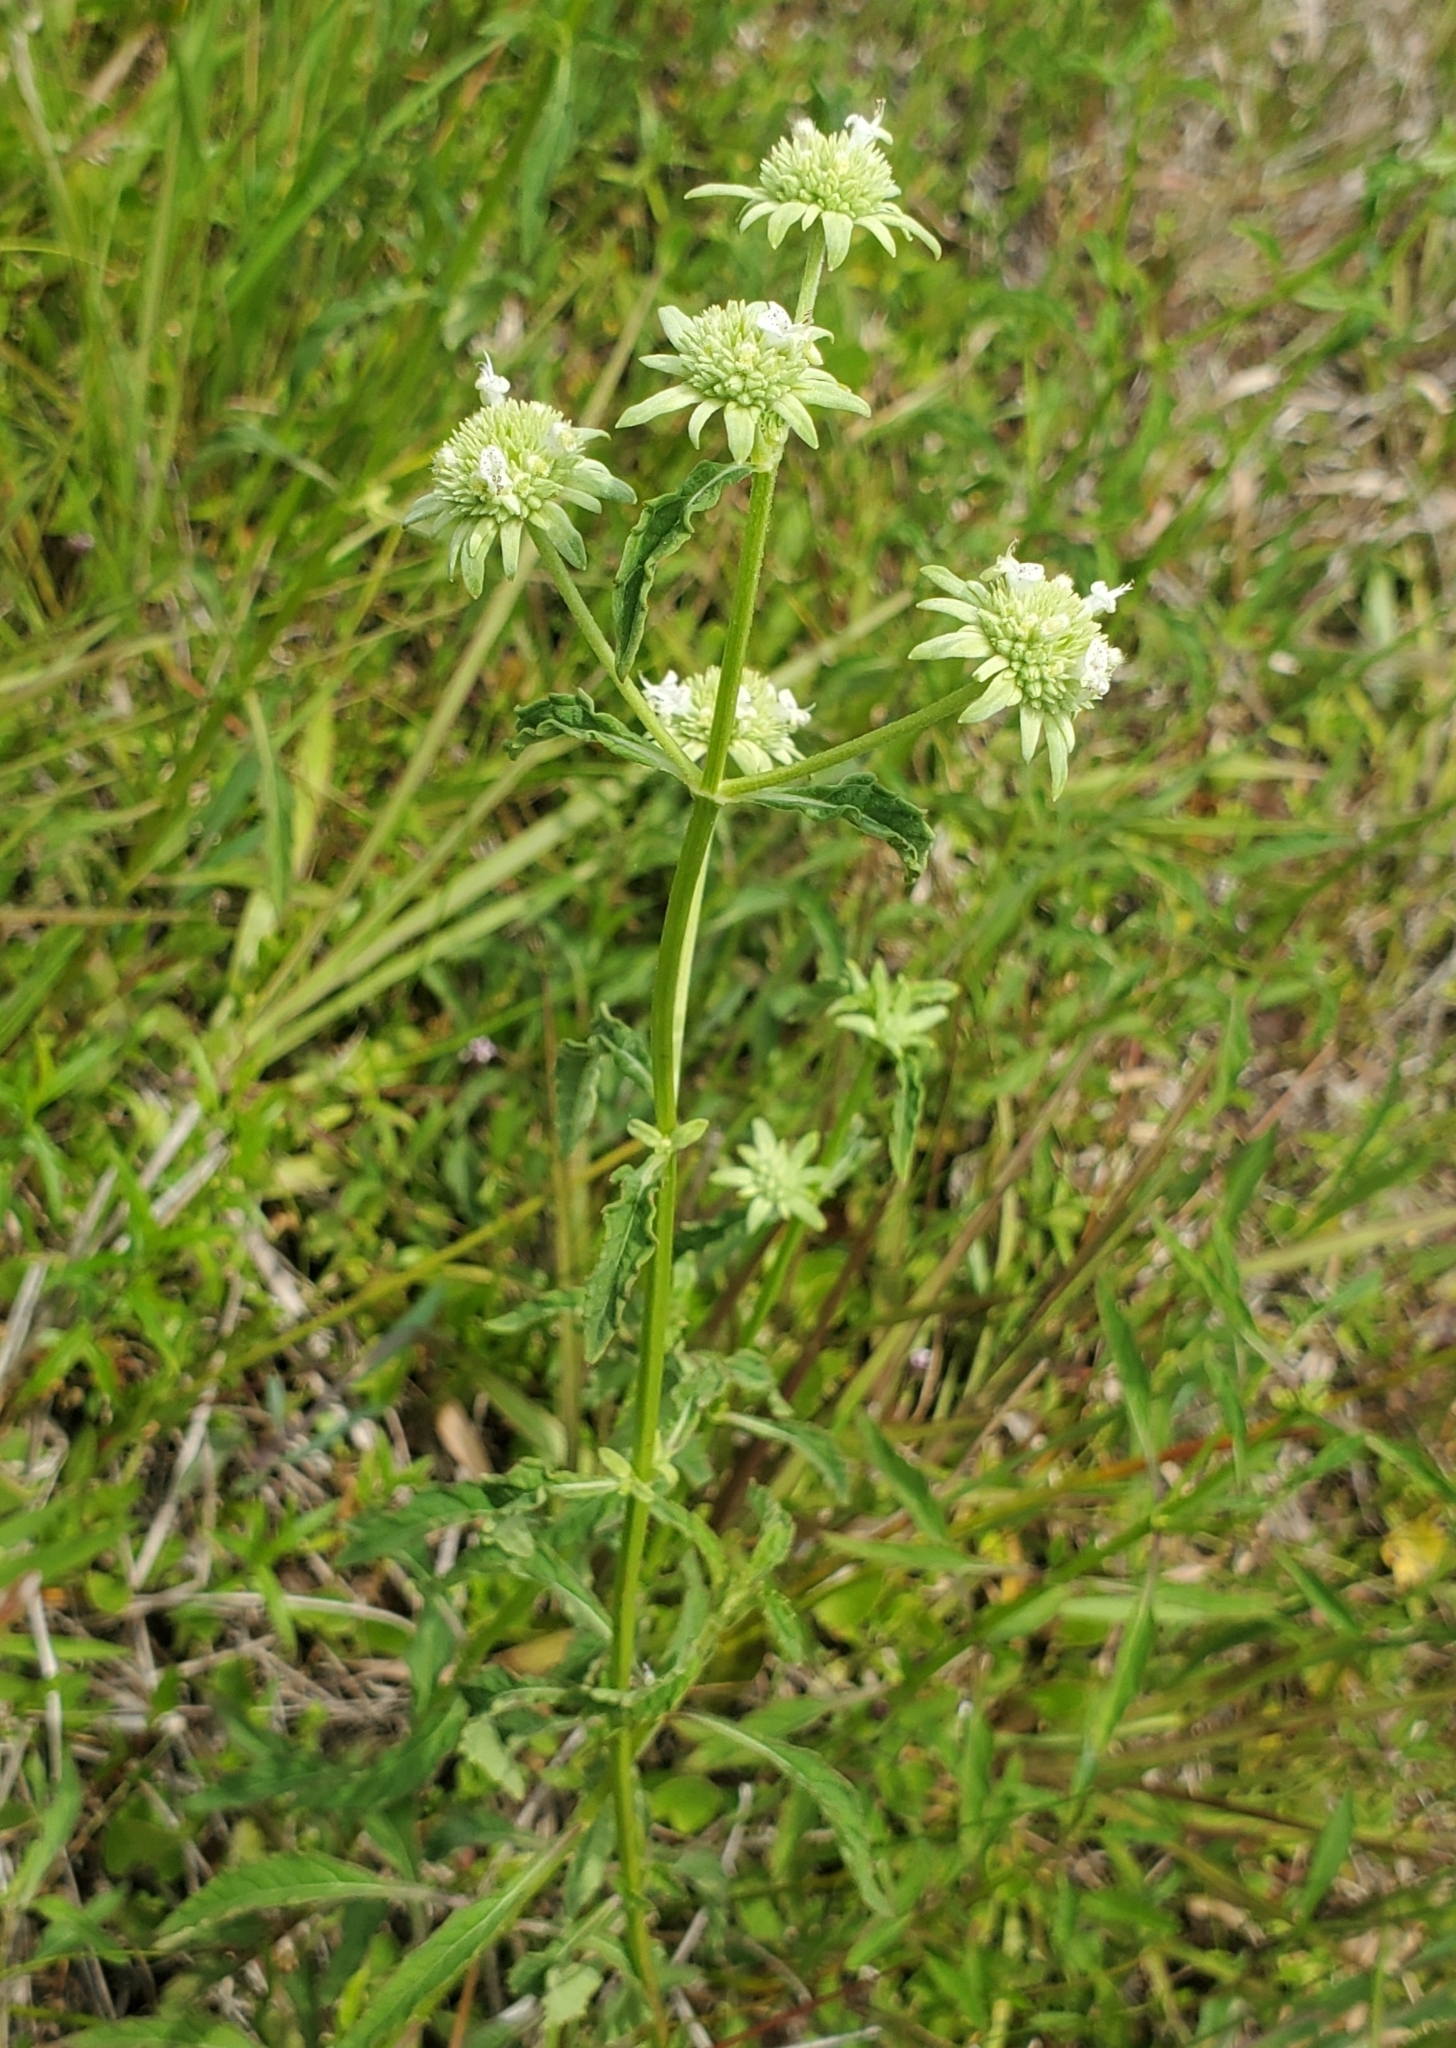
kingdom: Plantae
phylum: Tracheophyta
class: Magnoliopsida
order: Lamiales
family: Lamiaceae
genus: Hyptis
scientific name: Hyptis alata
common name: Cluster bush-mint
